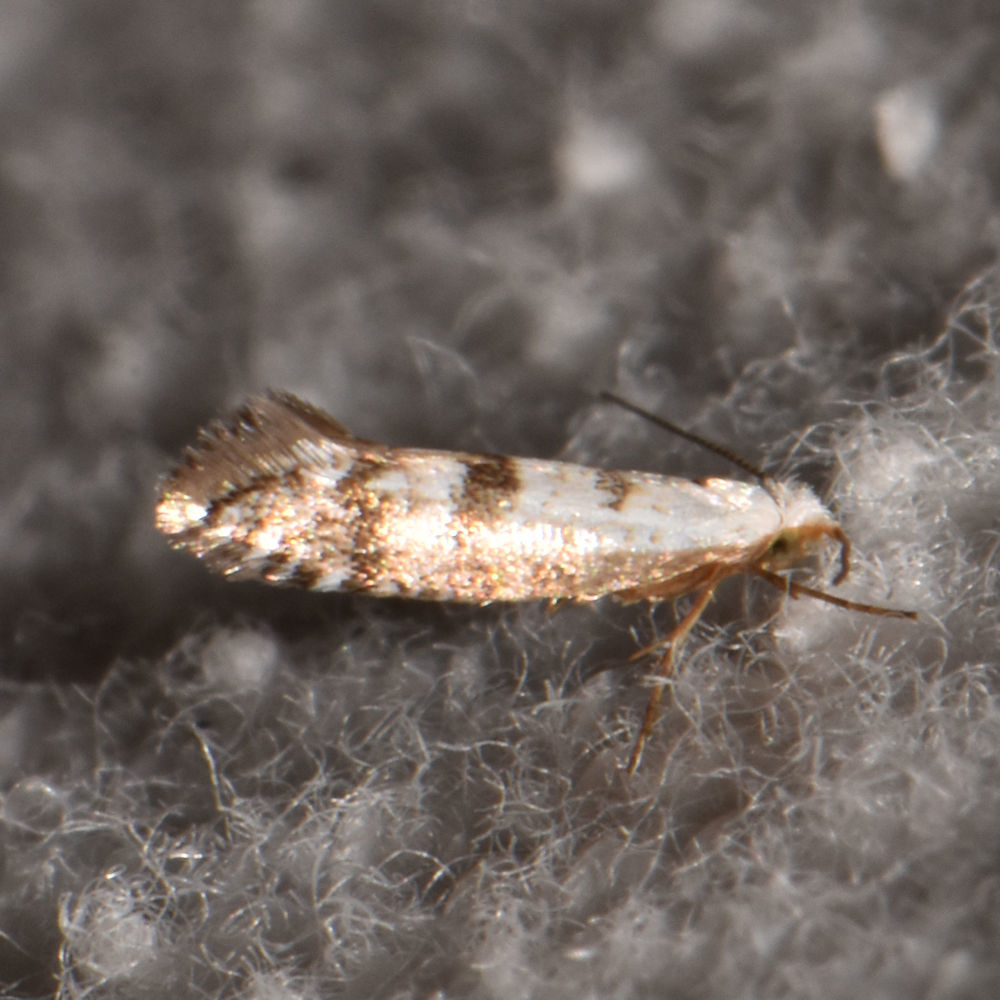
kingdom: Animalia
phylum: Arthropoda
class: Insecta
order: Lepidoptera
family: Argyresthiidae
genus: Argyresthia
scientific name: Argyresthia thuiella
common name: Arborvitae leafminer
